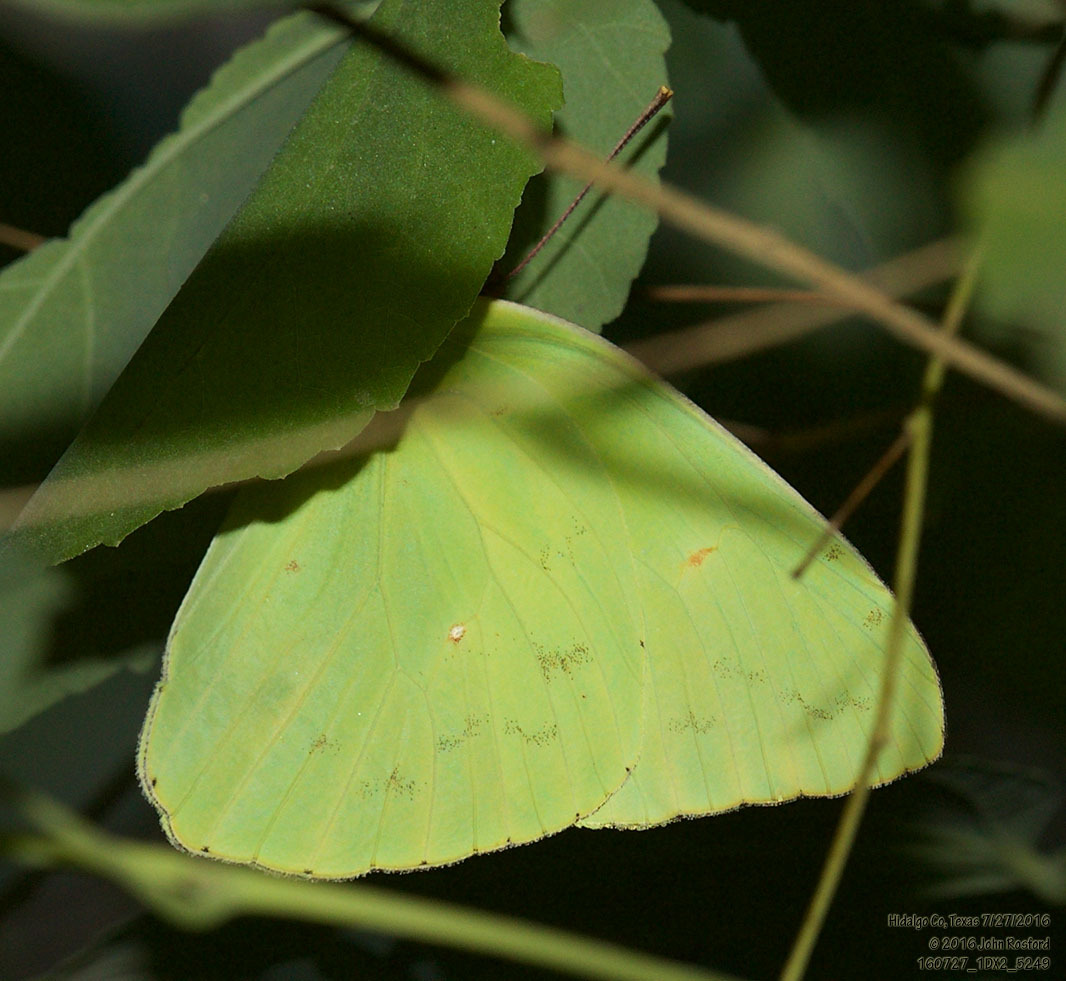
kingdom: Animalia
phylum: Arthropoda
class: Insecta
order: Lepidoptera
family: Pieridae
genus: Phoebis
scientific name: Phoebis sennae
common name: Cloudless sulphur
